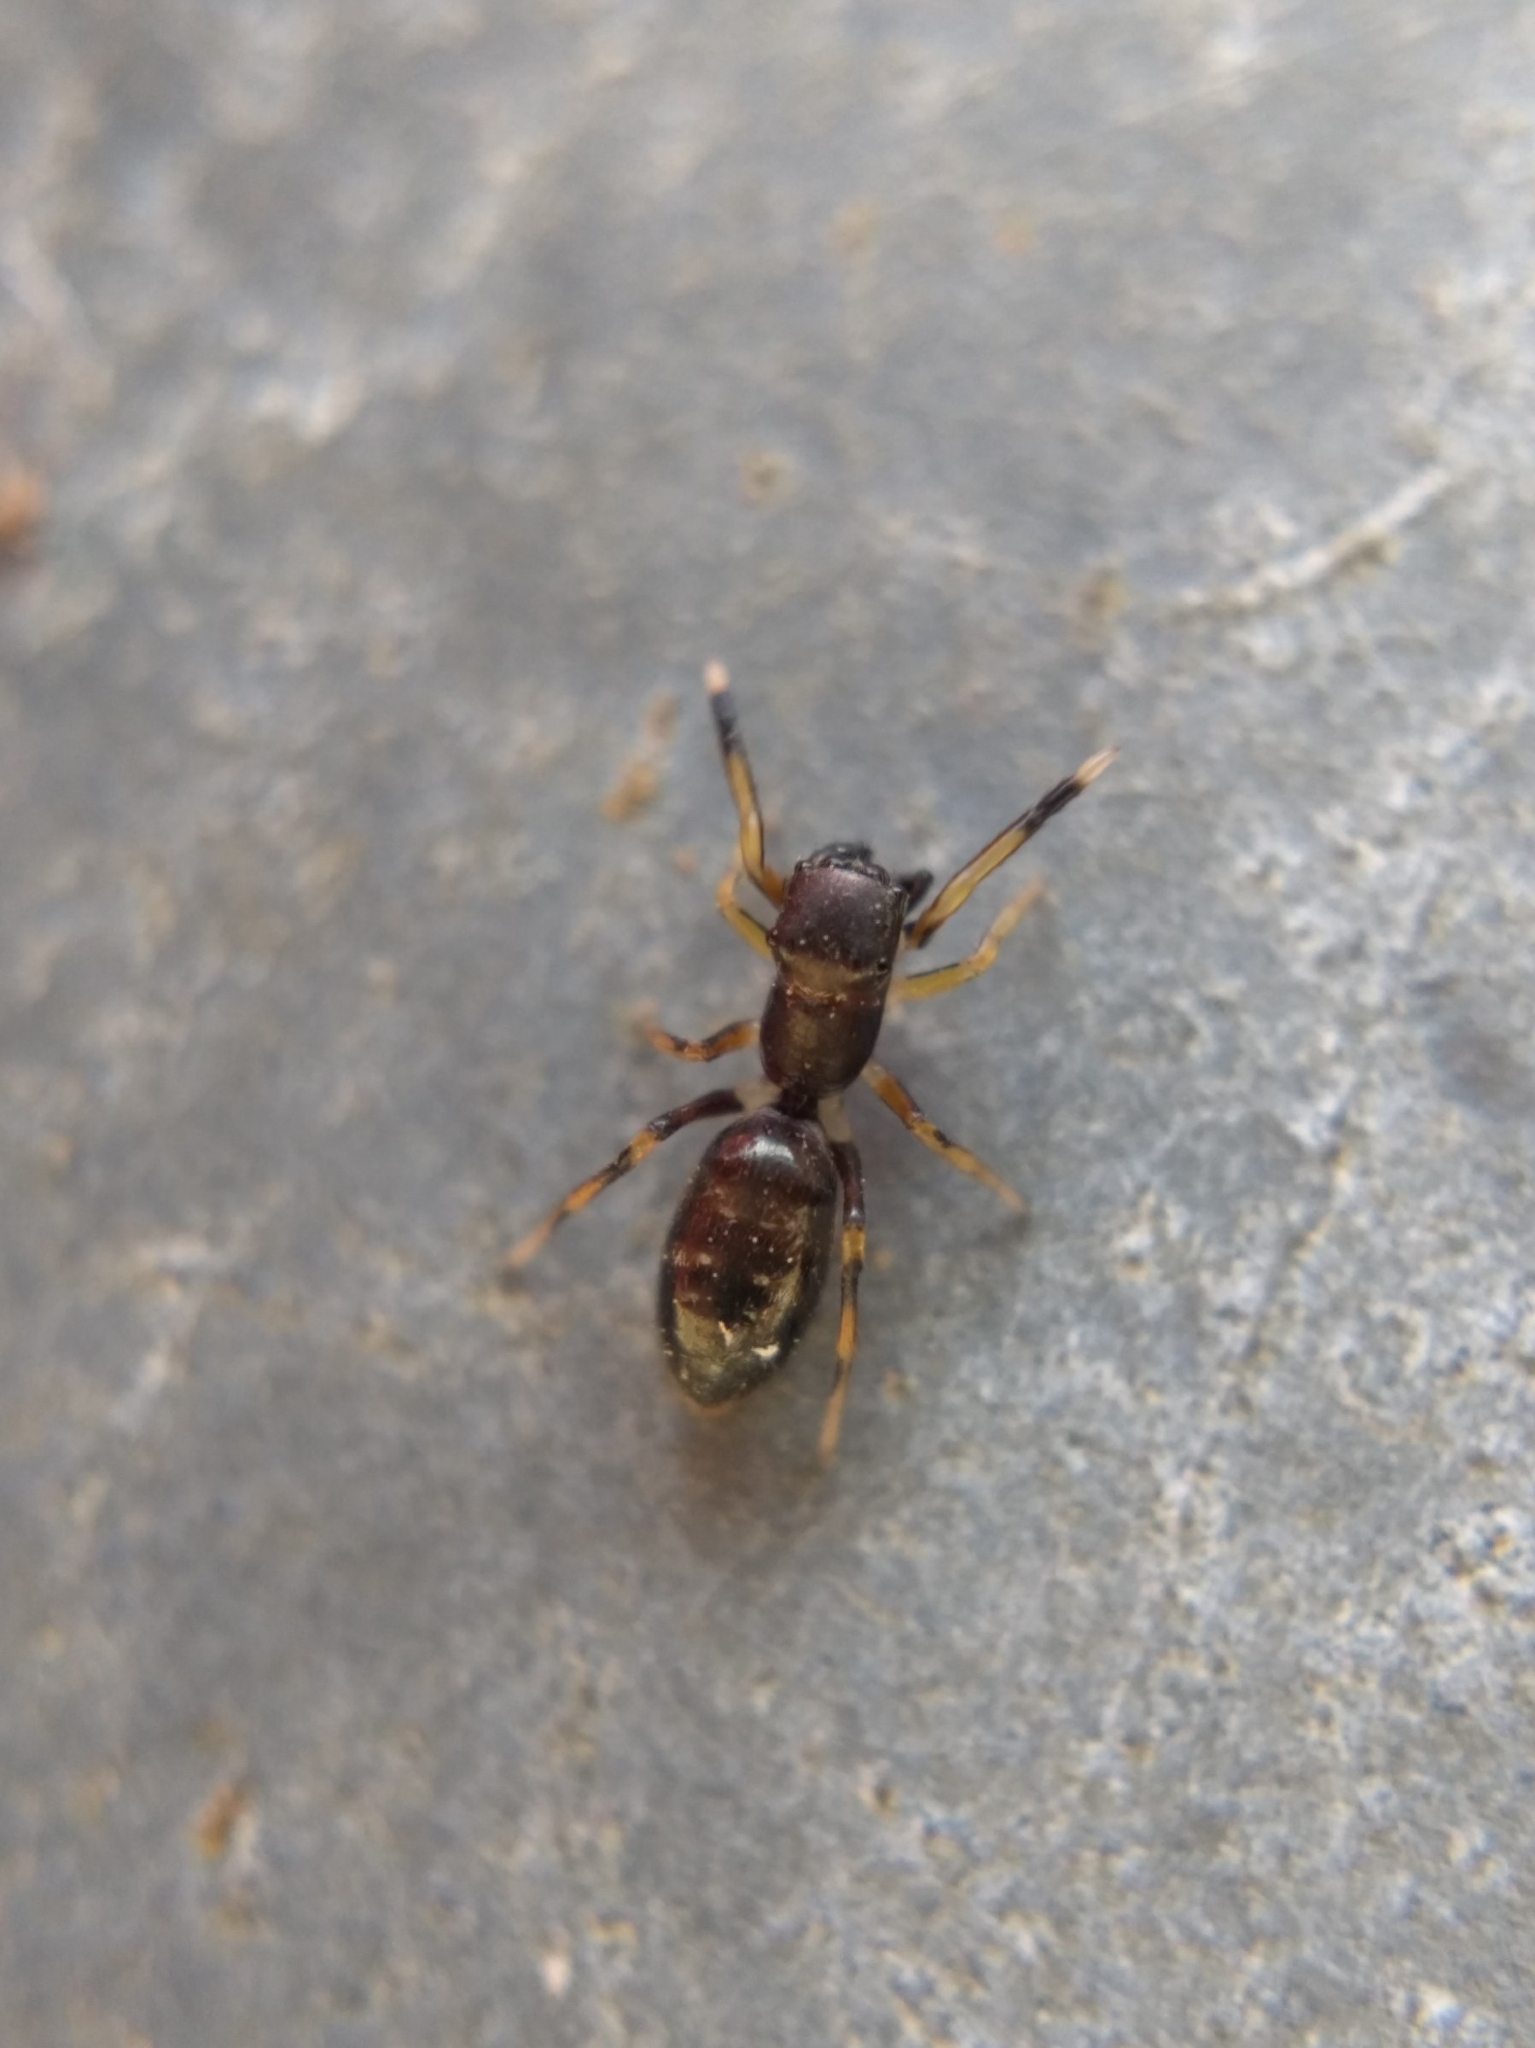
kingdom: Animalia
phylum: Arthropoda
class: Arachnida
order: Araneae
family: Salticidae
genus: Myrmarachne
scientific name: Myrmarachne formicaria
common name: Ant mimic jumping spider
